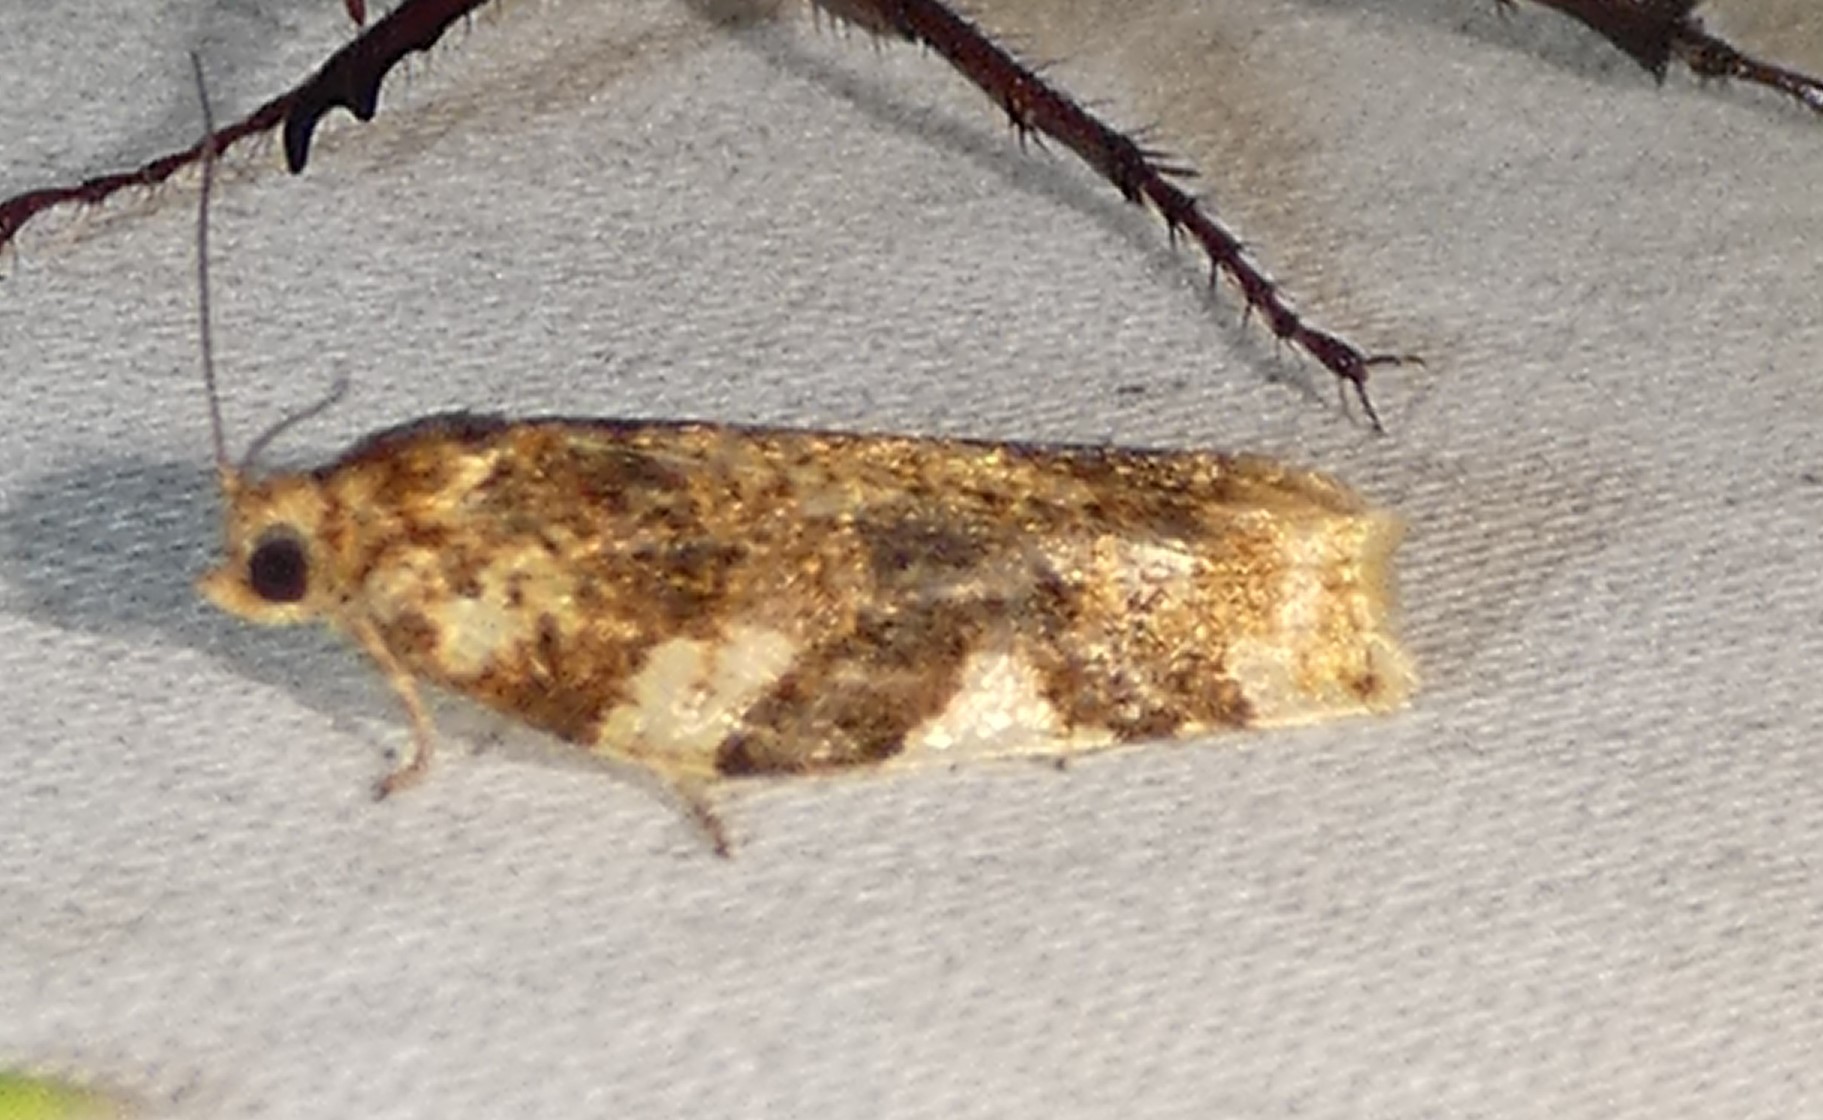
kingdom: Animalia
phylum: Arthropoda
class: Insecta
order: Lepidoptera
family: Tortricidae
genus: Archips
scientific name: Archips argyrospila
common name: Fruit-tree leafroller moth
